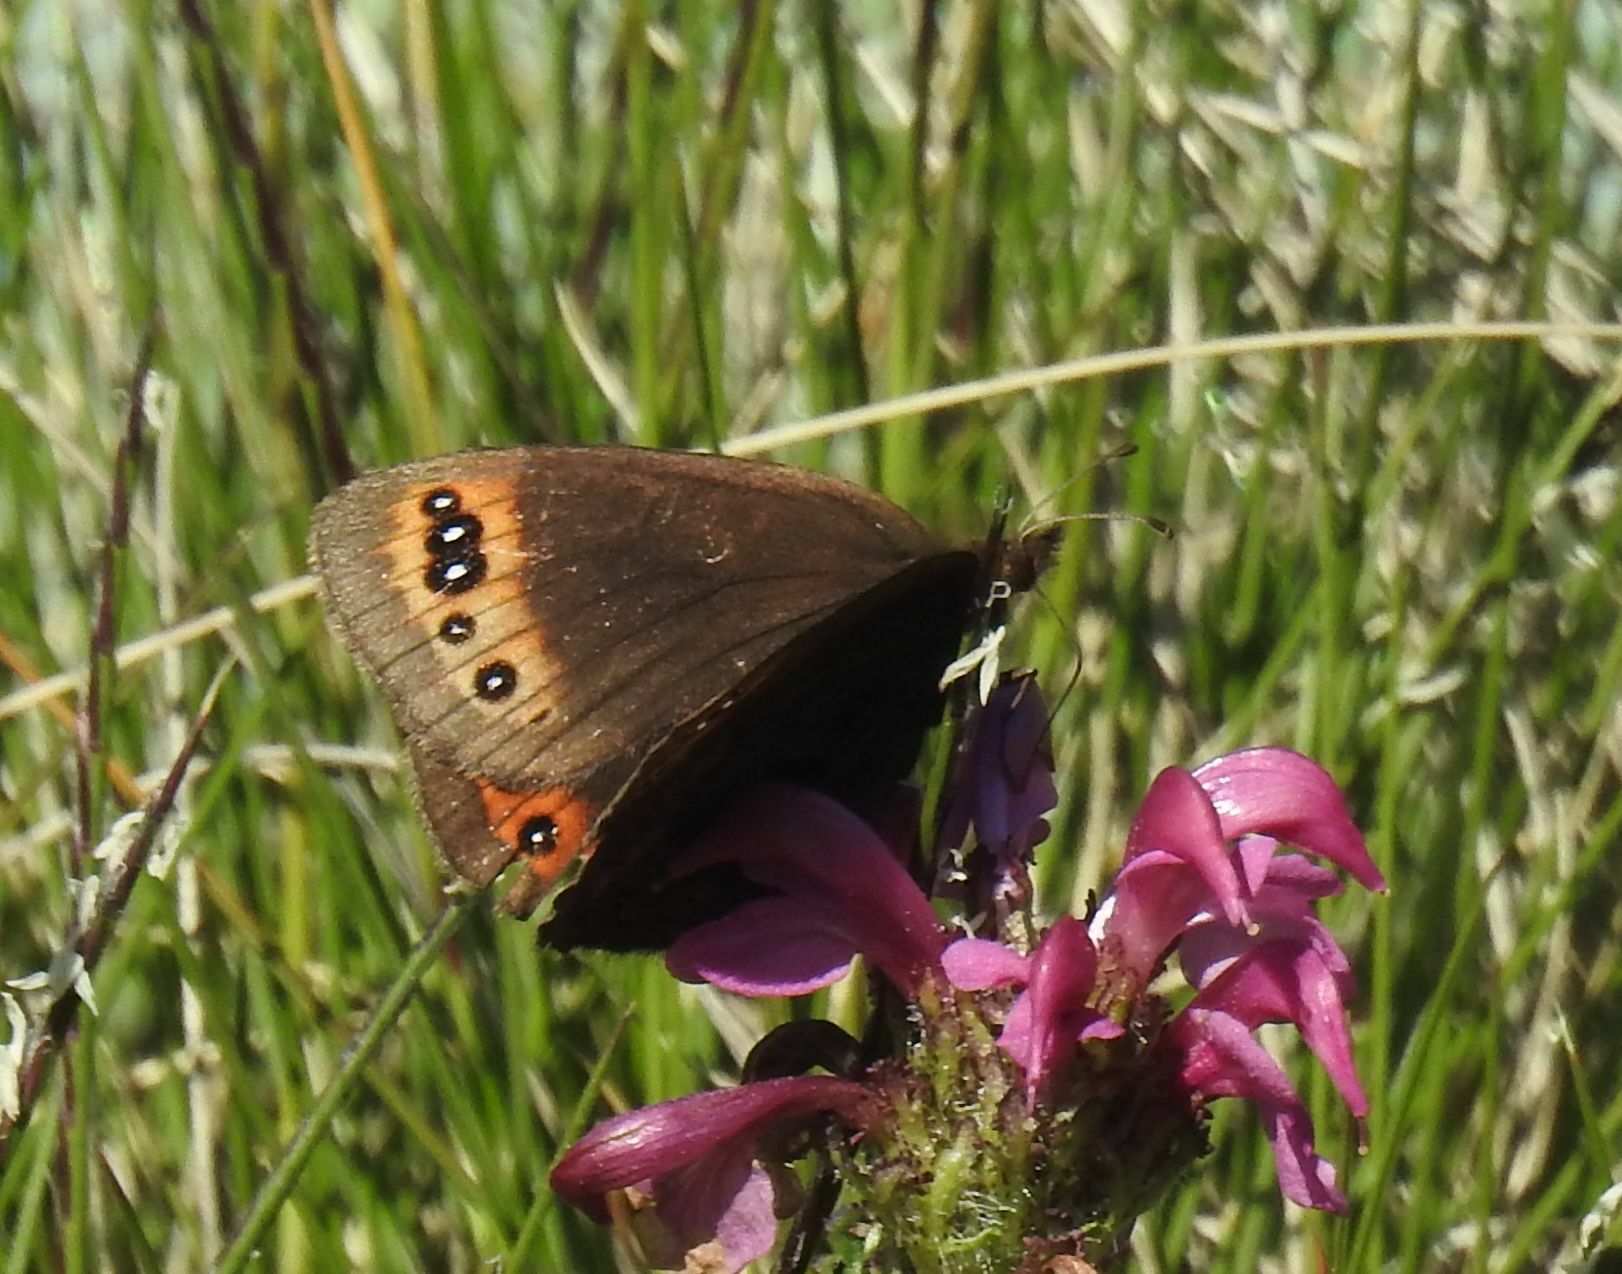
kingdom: Animalia
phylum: Arthropoda
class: Insecta
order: Lepidoptera
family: Nymphalidae
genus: Erebia
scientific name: Erebia triarius
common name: De prunner’s ringlet
